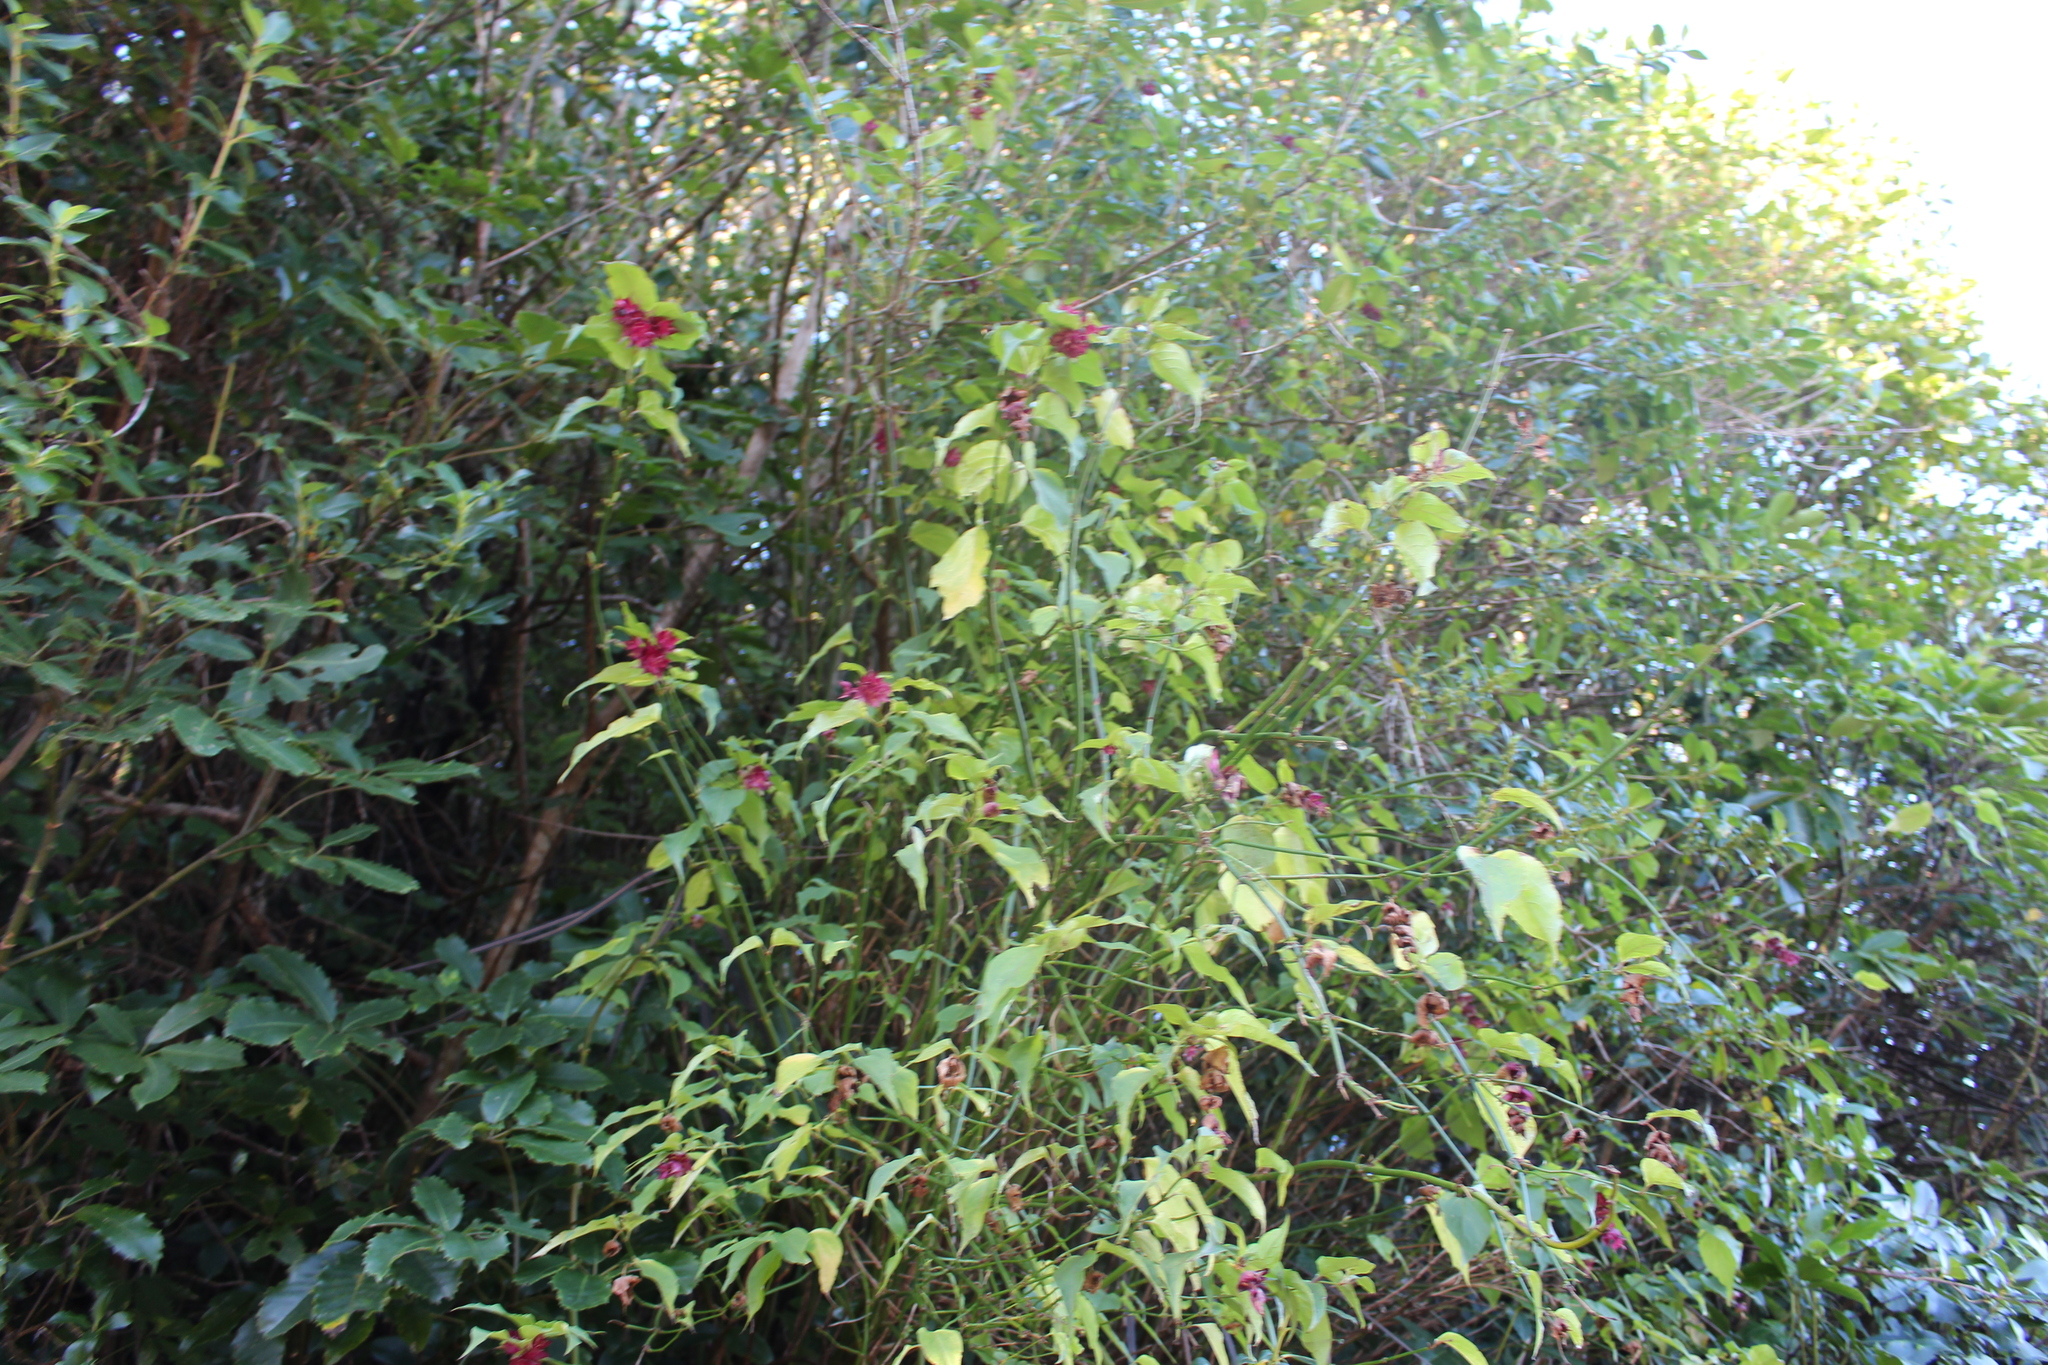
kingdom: Plantae
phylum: Tracheophyta
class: Magnoliopsida
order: Dipsacales
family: Caprifoliaceae
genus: Leycesteria
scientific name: Leycesteria formosa
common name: Himalayan honeysuckle
